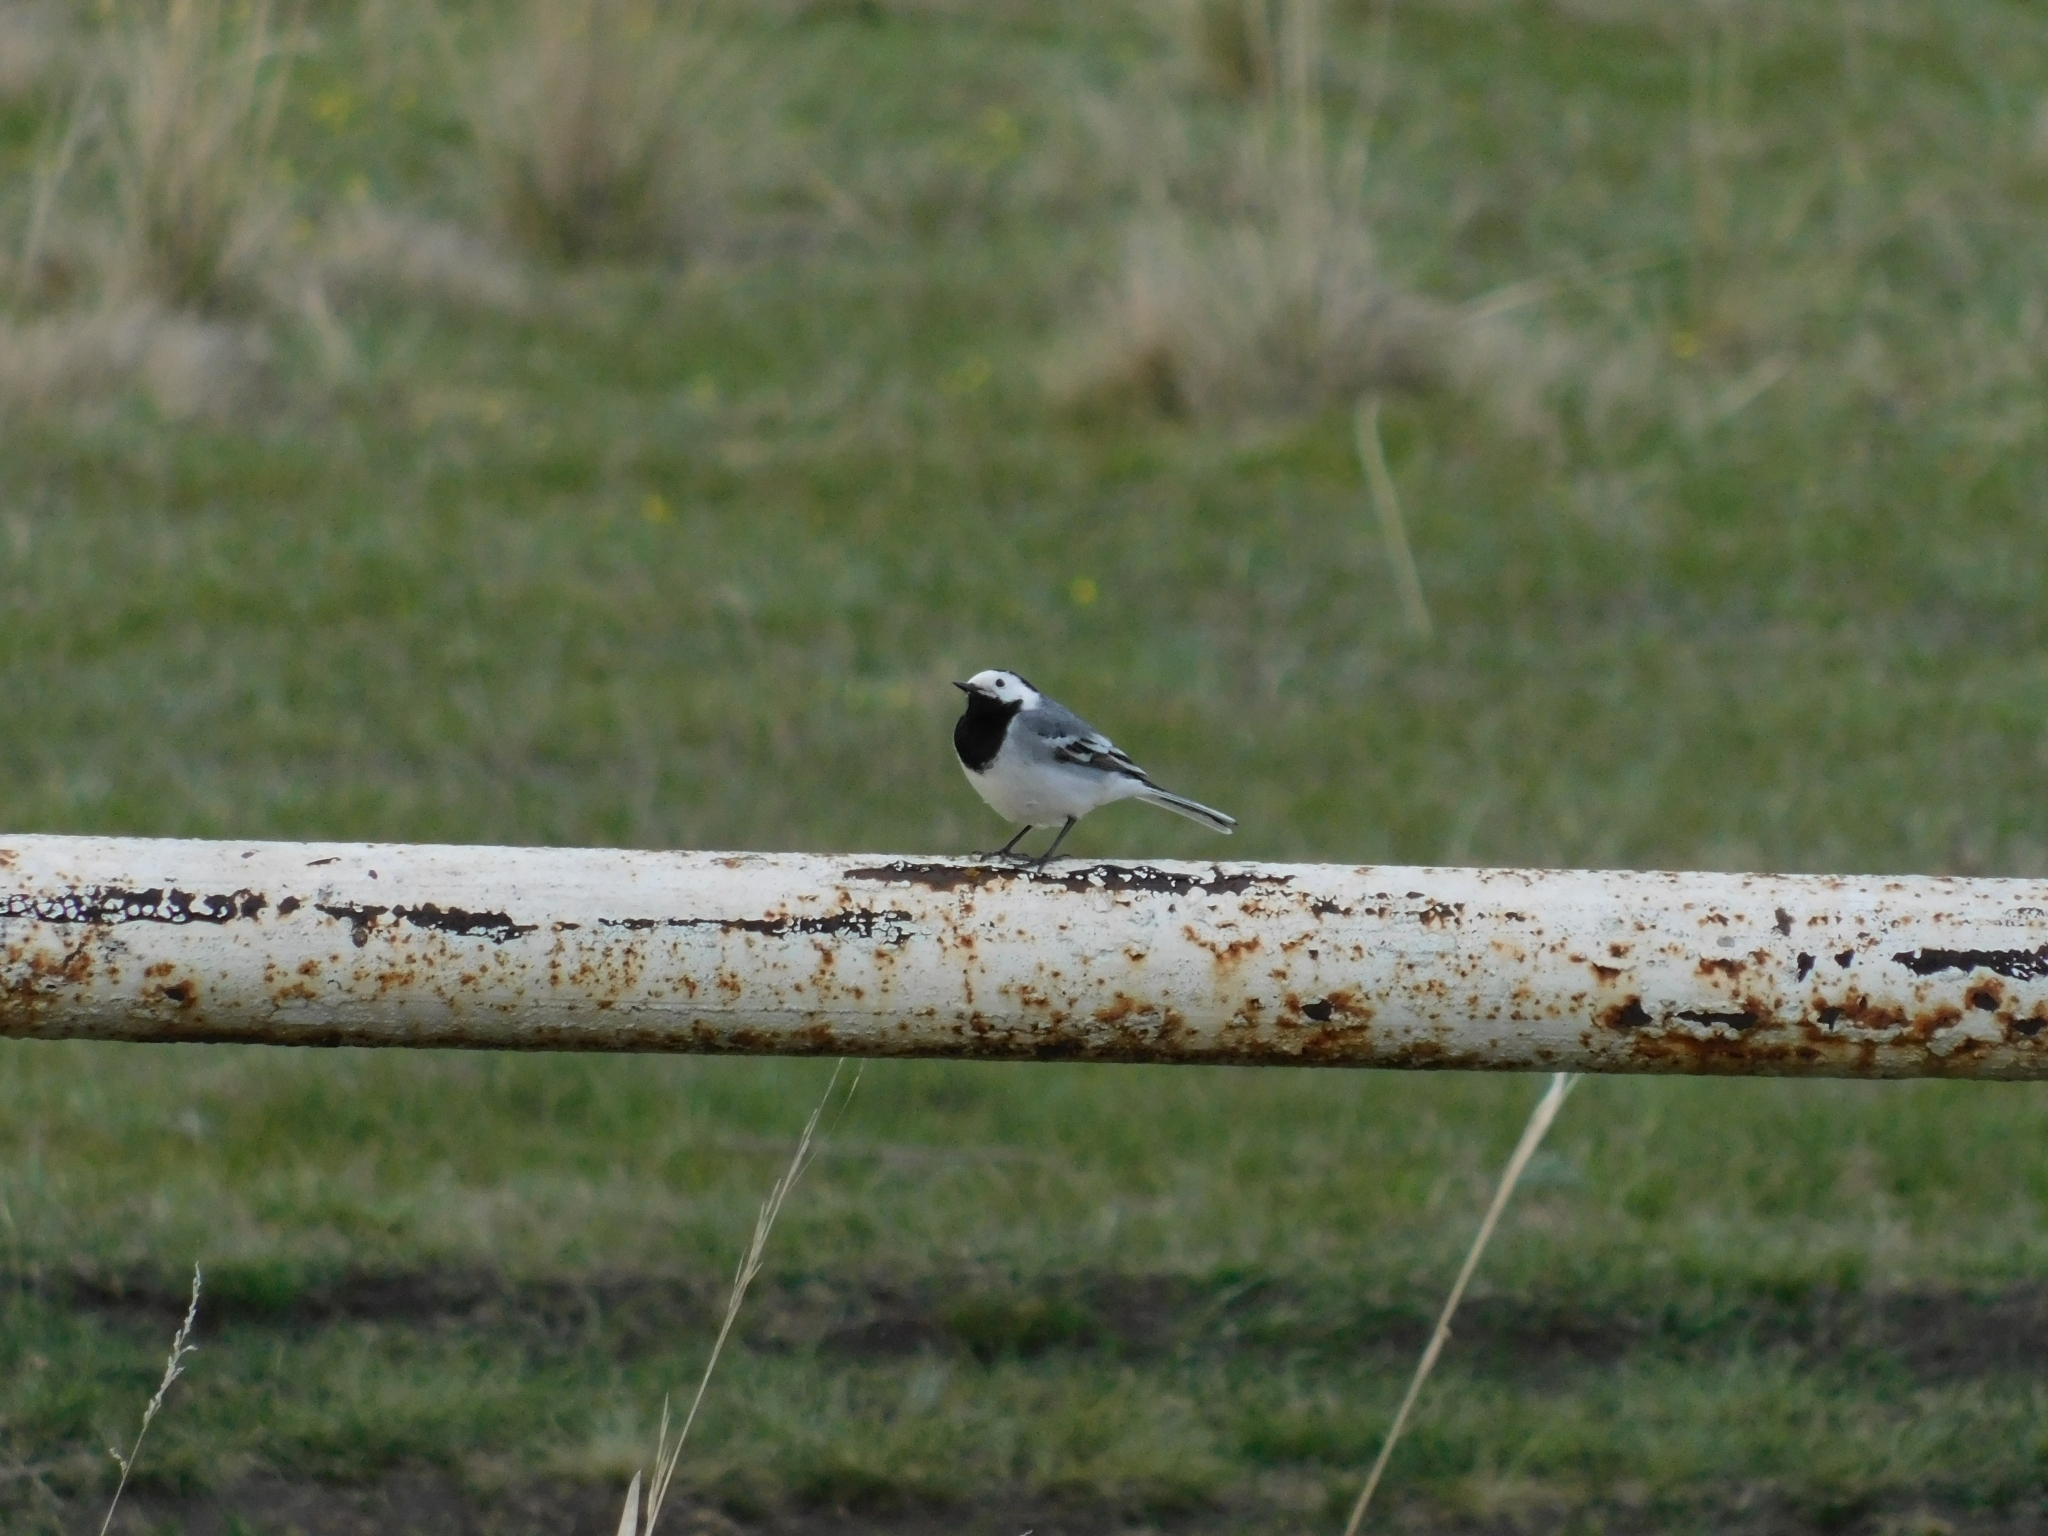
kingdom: Animalia
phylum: Chordata
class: Aves
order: Passeriformes
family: Motacillidae
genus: Motacilla
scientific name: Motacilla alba
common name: White wagtail
